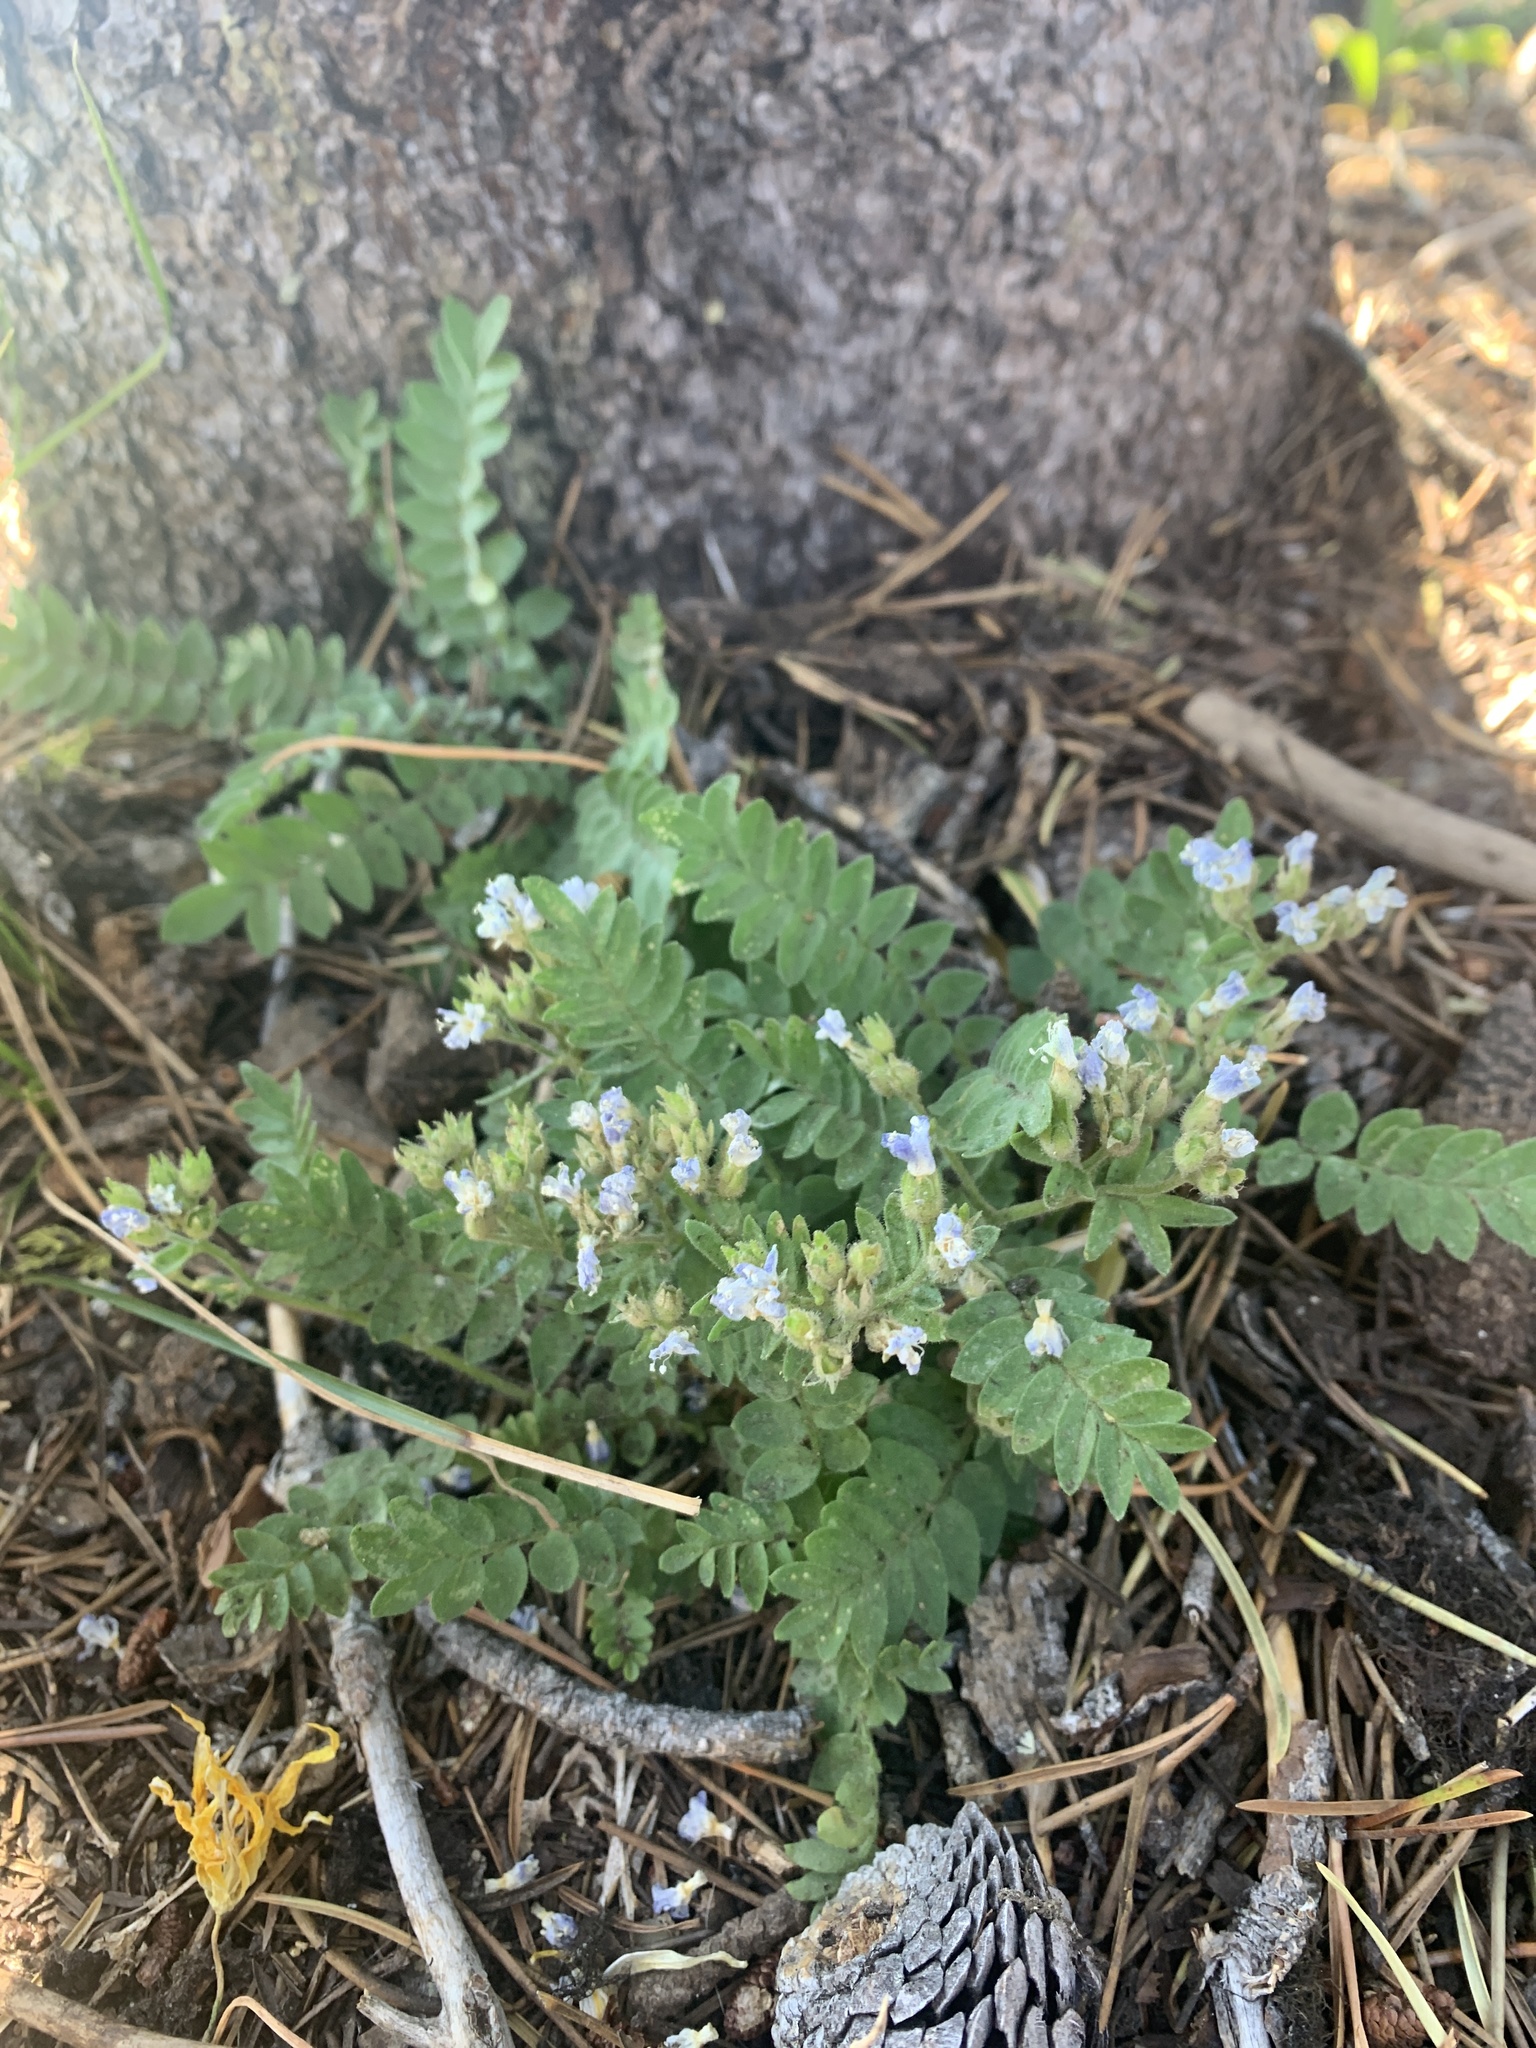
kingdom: Plantae
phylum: Tracheophyta
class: Magnoliopsida
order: Ericales
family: Polemoniaceae
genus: Polemonium
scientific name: Polemonium californicum
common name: California jacob's ladder
